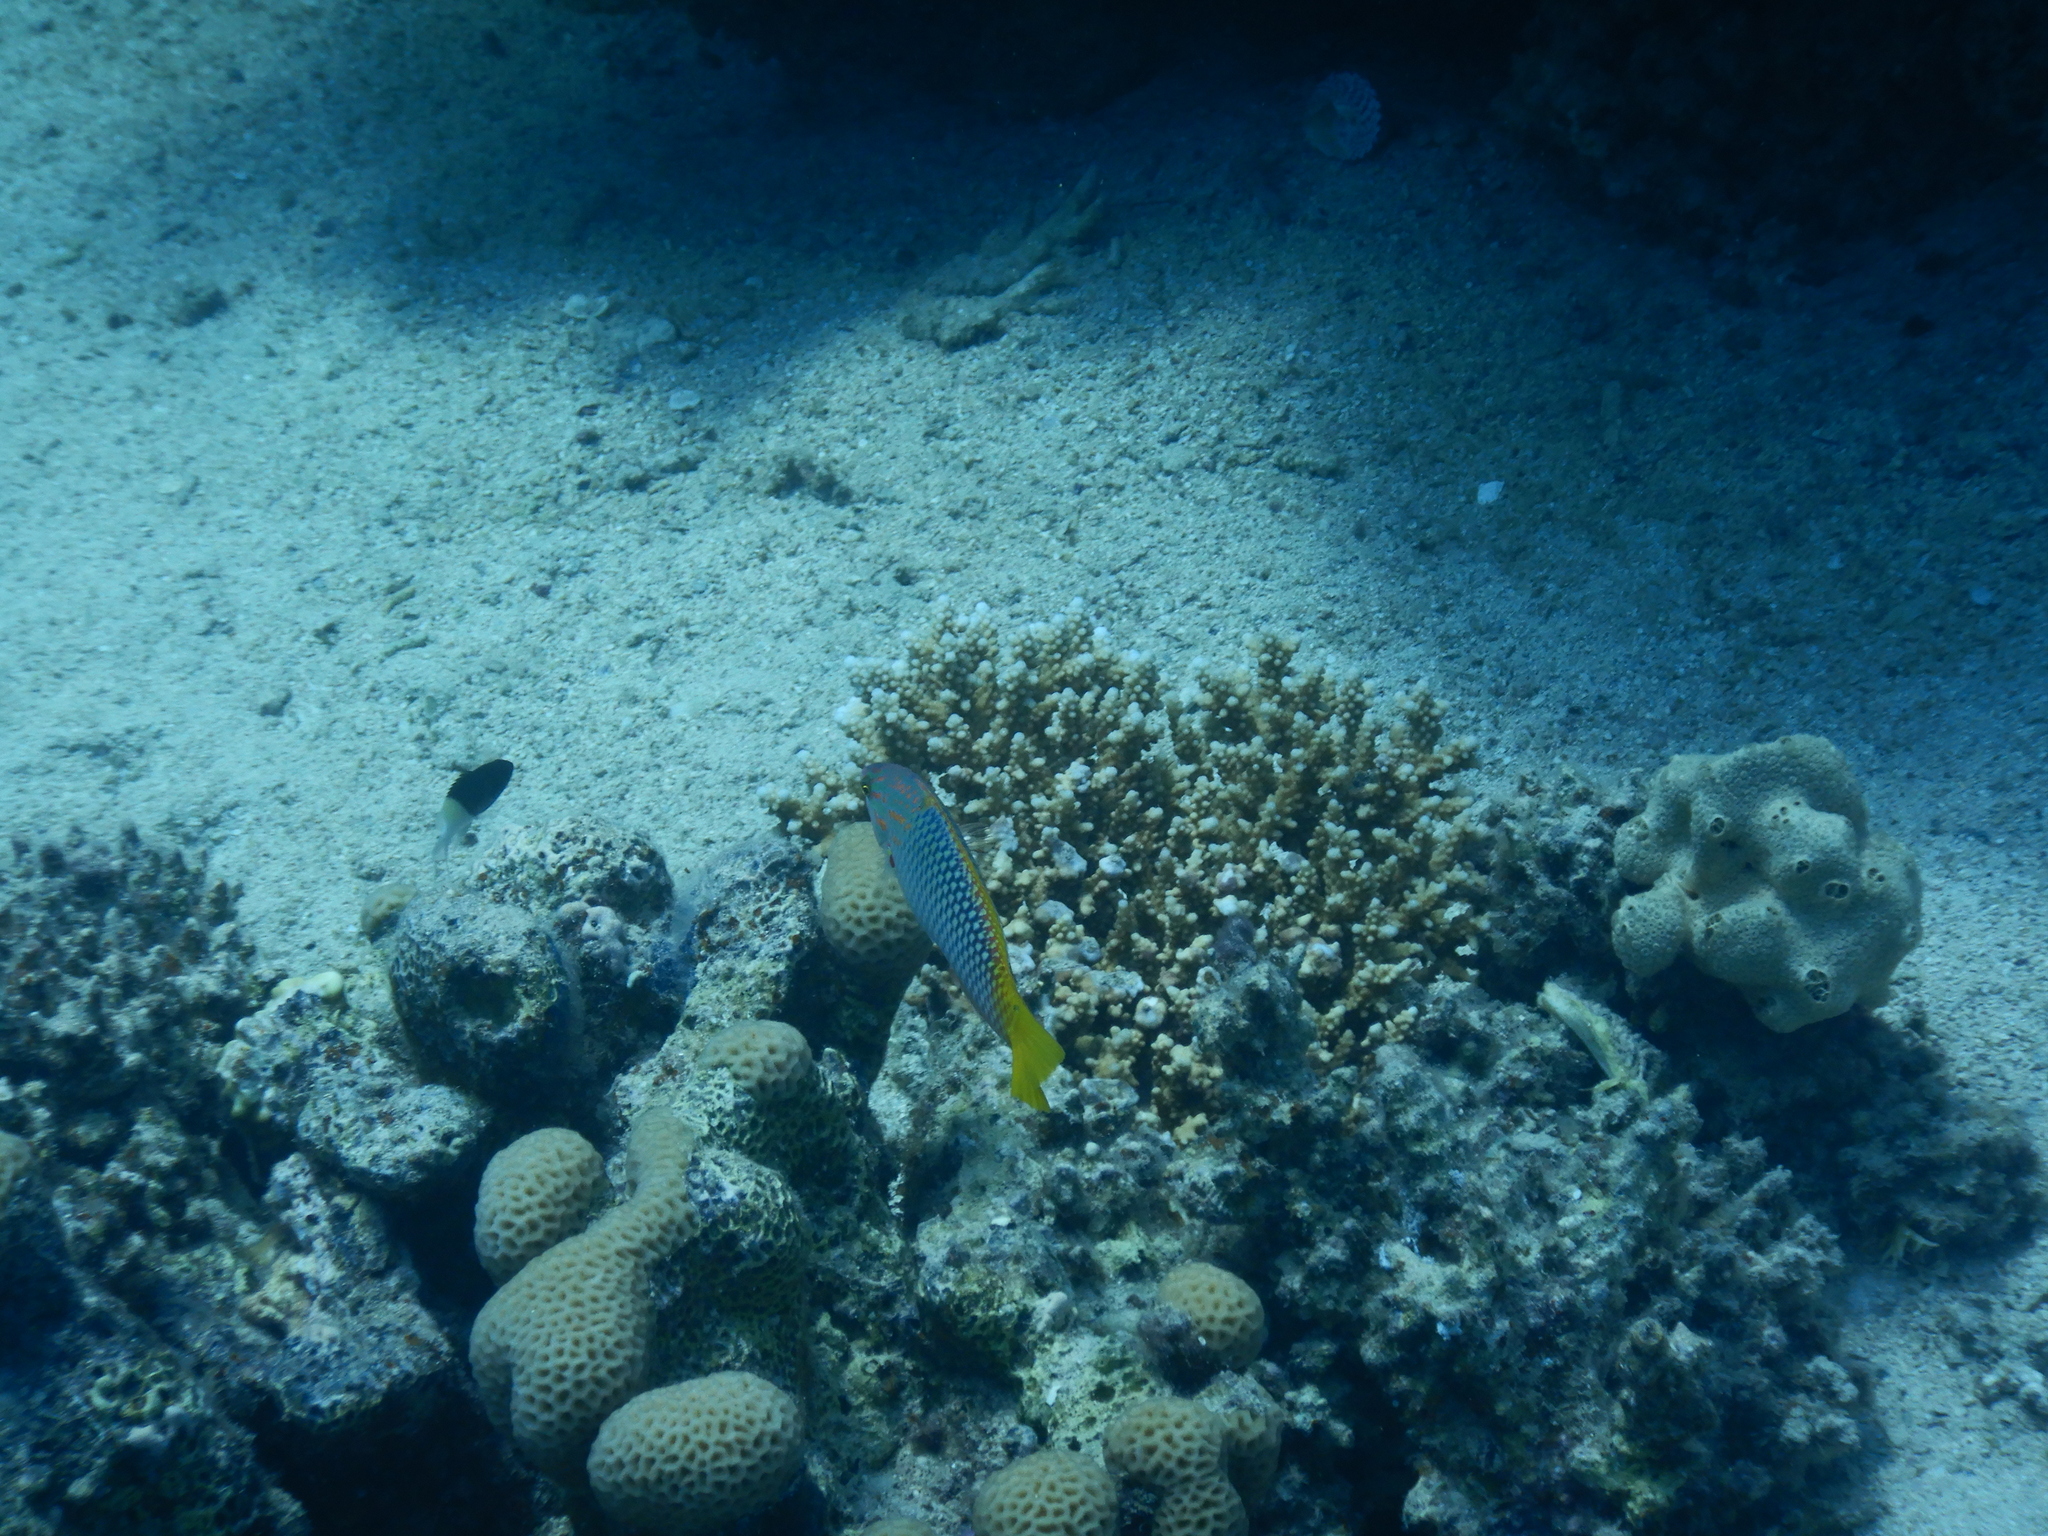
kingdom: Animalia
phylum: Chordata
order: Perciformes
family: Labridae
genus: Halichoeres
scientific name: Halichoeres hortulanus
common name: Checkerboard wrasse
